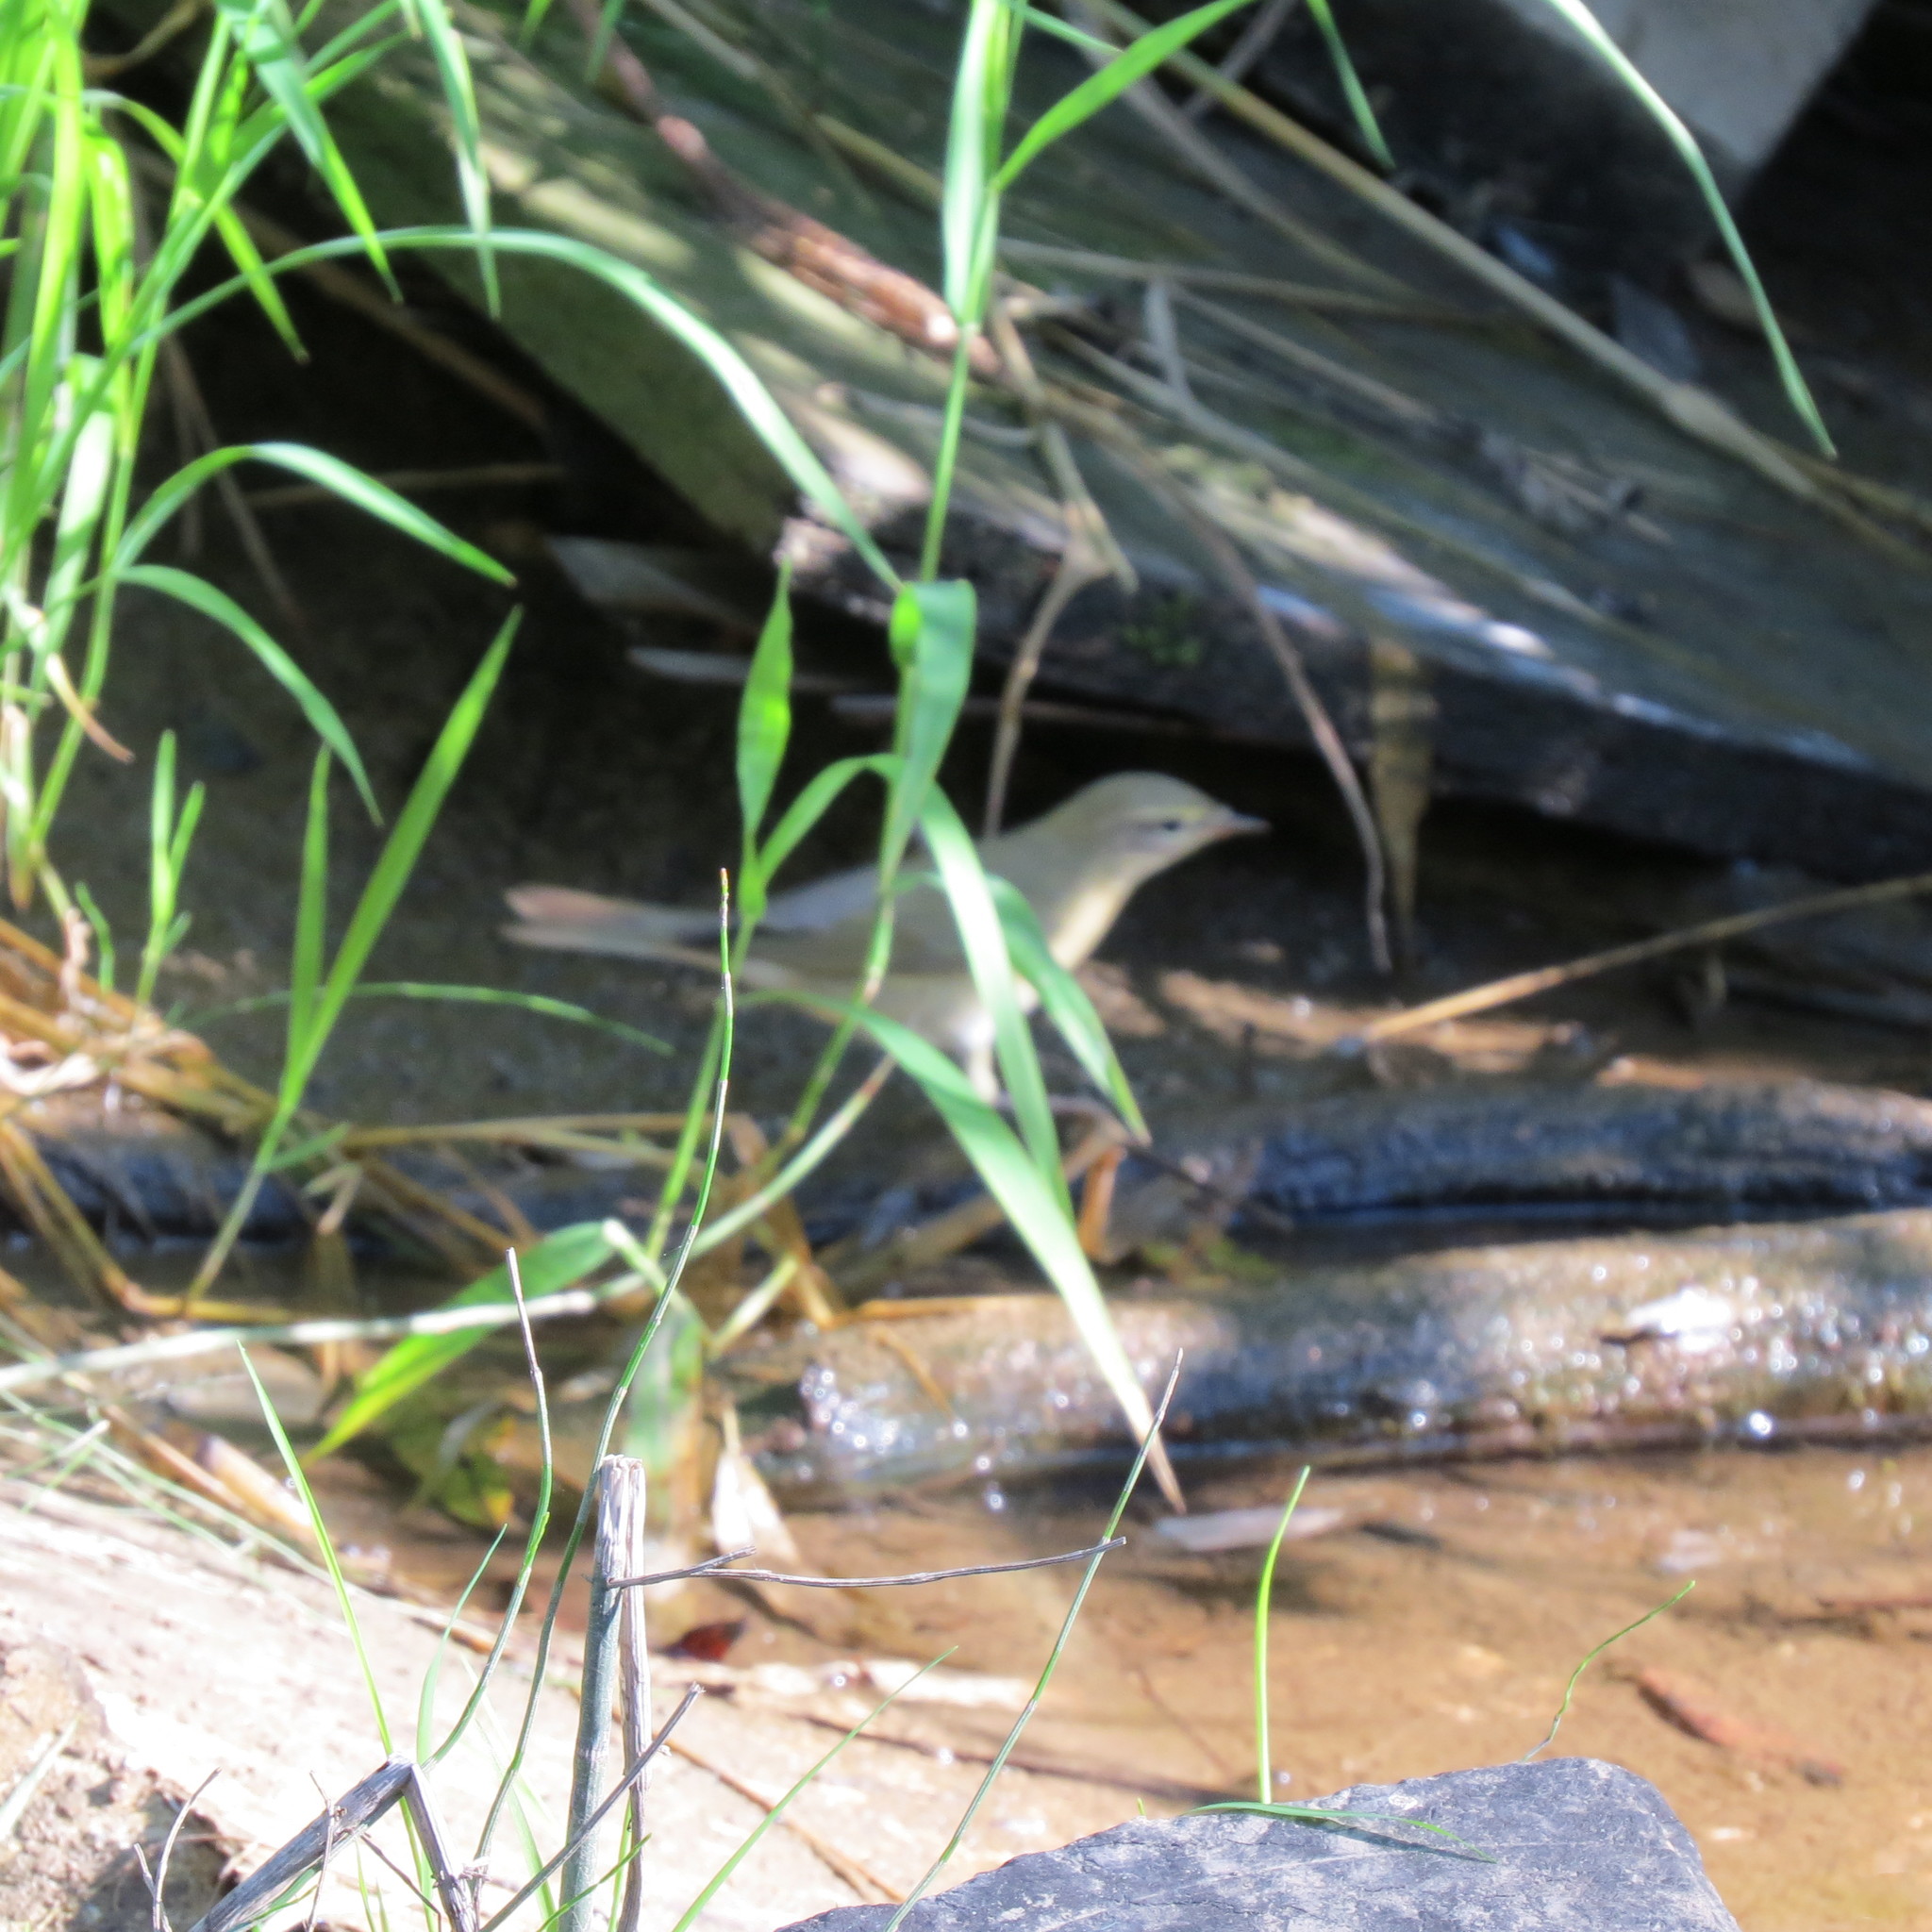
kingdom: Animalia
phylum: Chordata
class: Aves
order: Passeriformes
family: Phylloscopidae
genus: Phylloscopus
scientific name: Phylloscopus trochilus
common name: Willow warbler
